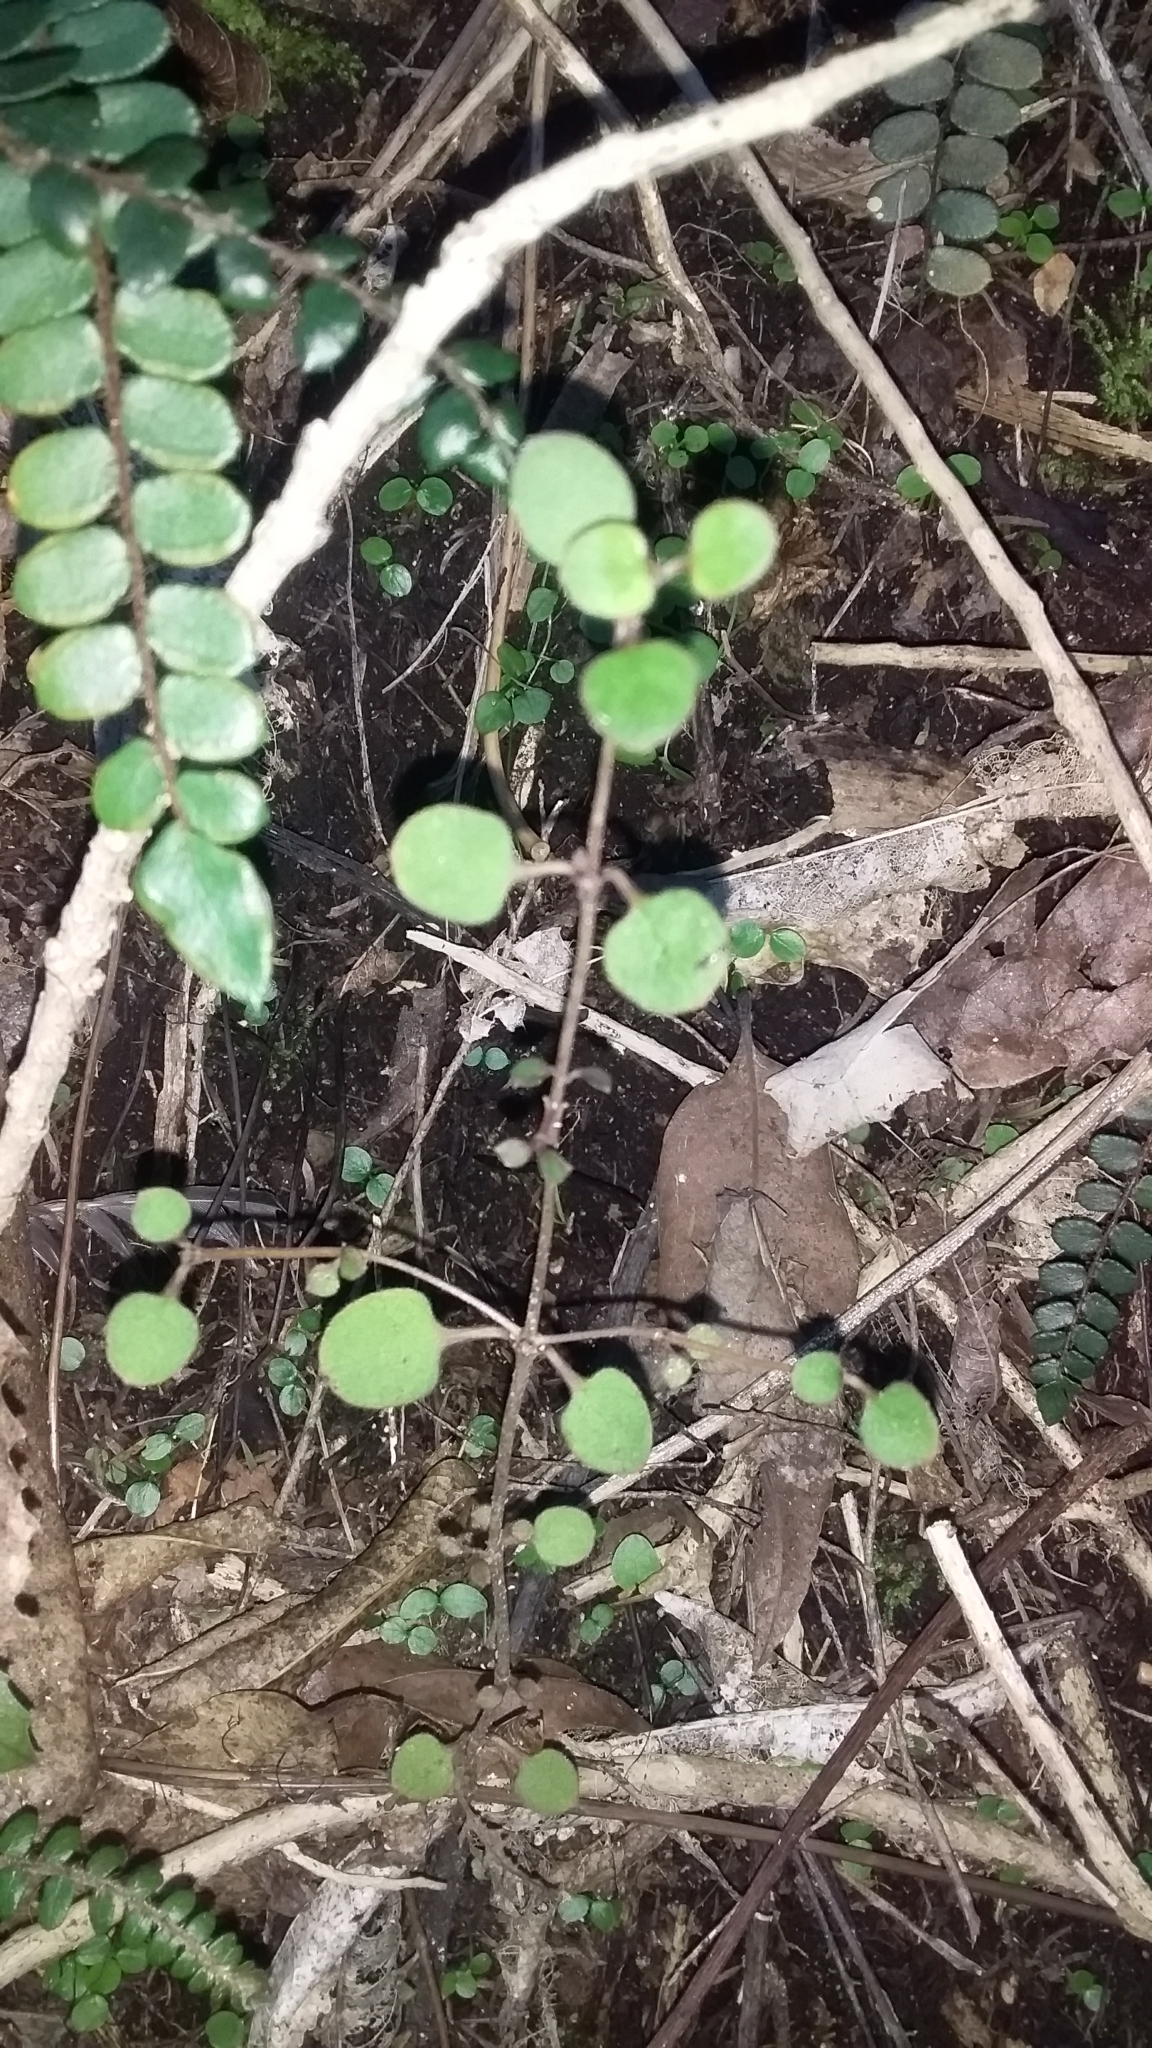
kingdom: Plantae
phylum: Tracheophyta
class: Magnoliopsida
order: Gentianales
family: Rubiaceae
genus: Coprosma
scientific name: Coprosma crassifolia
